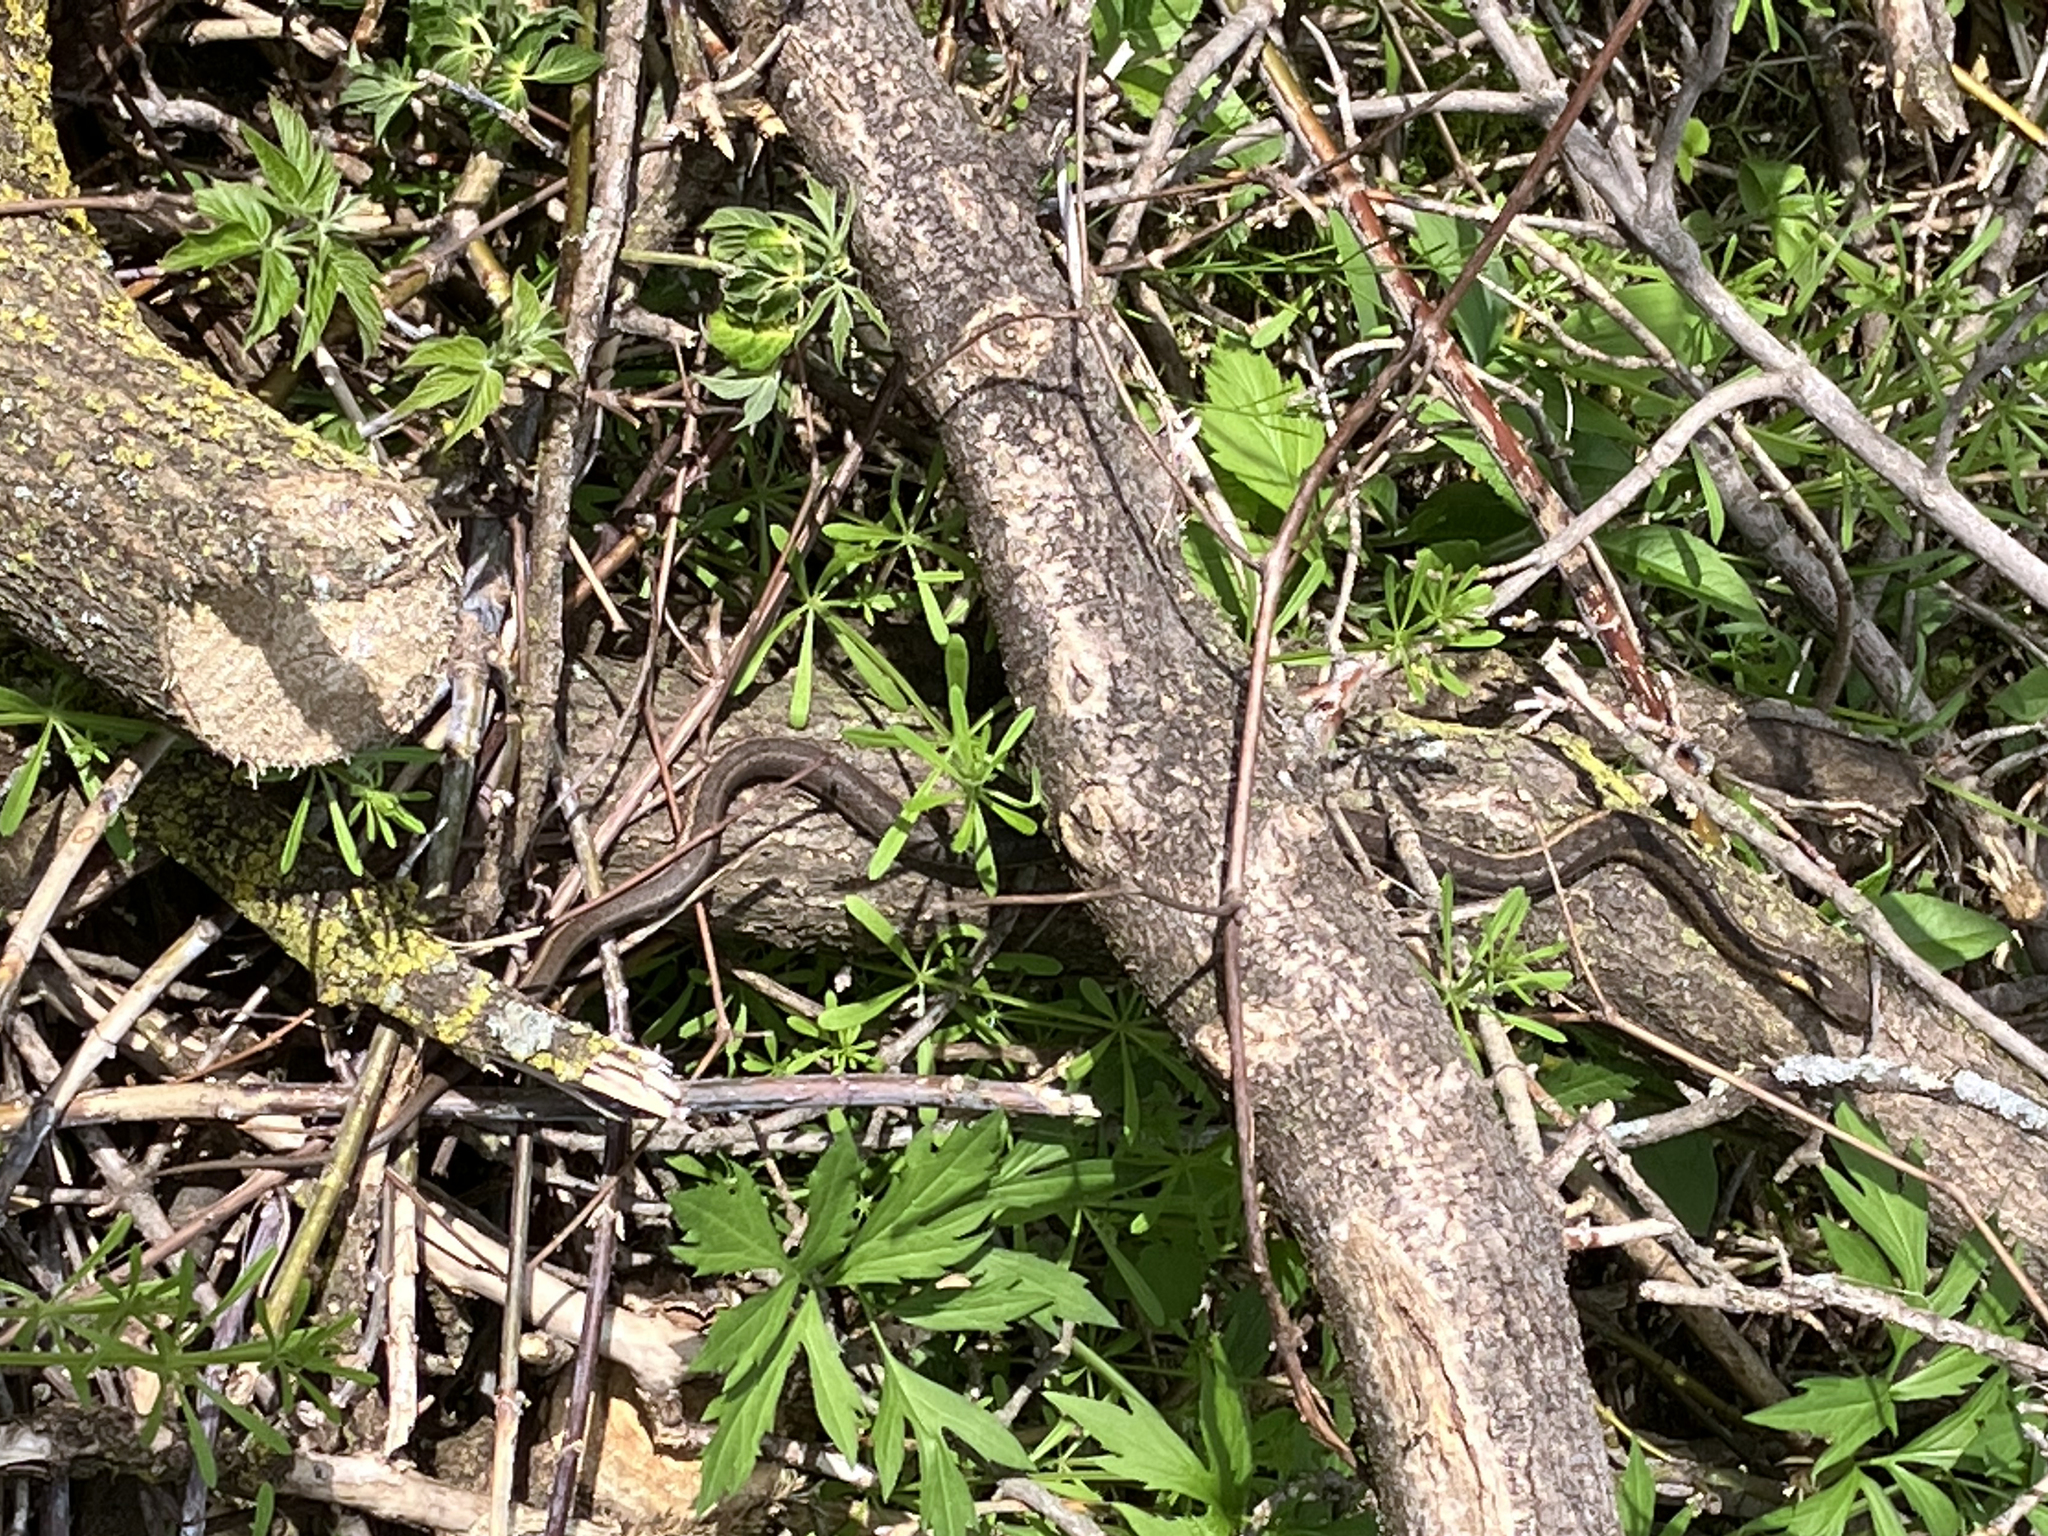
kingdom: Animalia
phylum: Chordata
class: Squamata
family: Colubridae
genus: Thamnophis
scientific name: Thamnophis sirtalis
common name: Common garter snake
